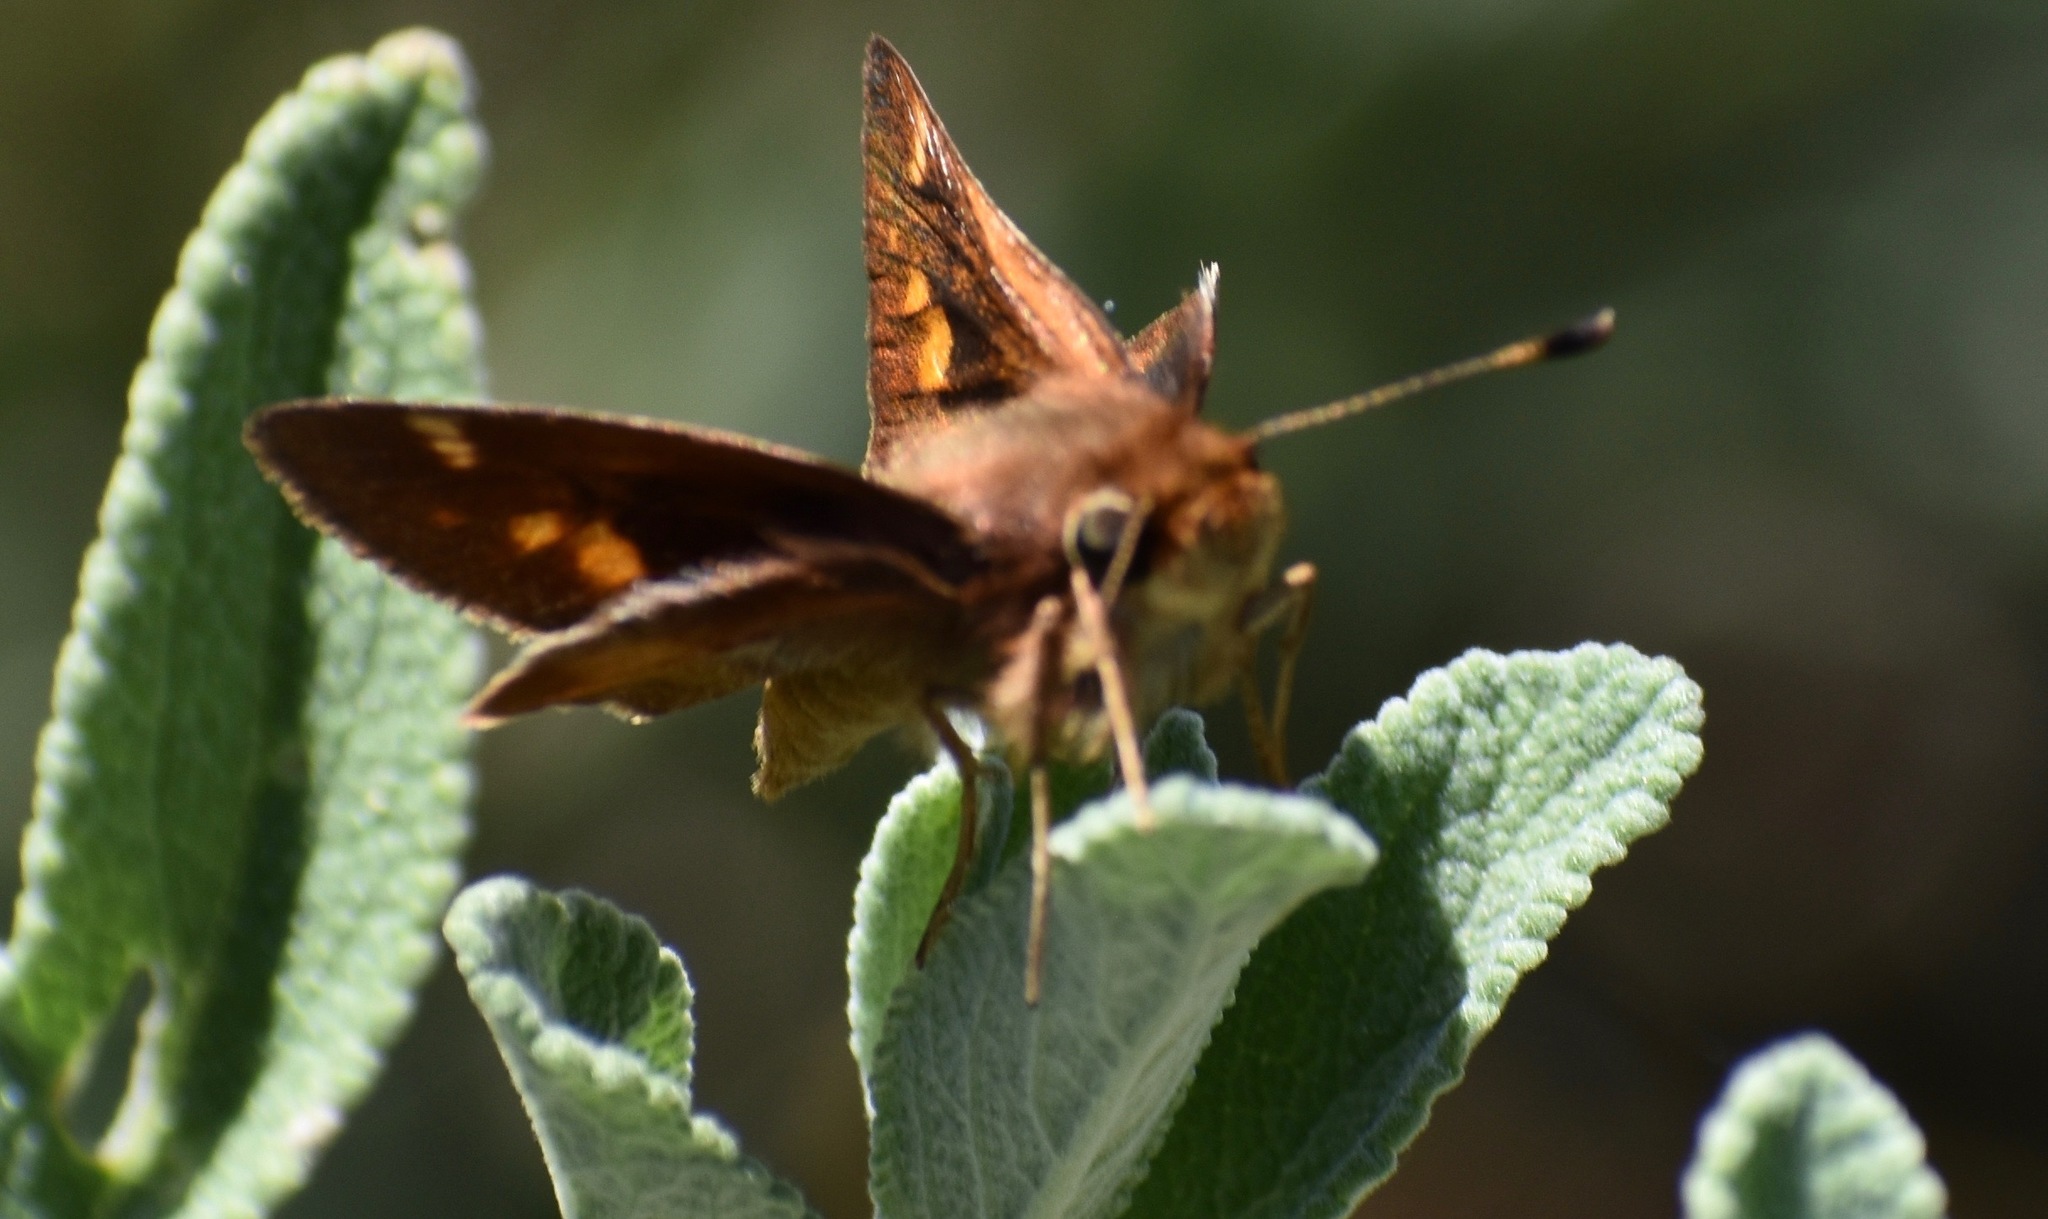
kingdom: Animalia
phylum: Arthropoda
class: Insecta
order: Lepidoptera
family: Hesperiidae
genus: Lon
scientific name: Lon melane
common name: Umber skipper
